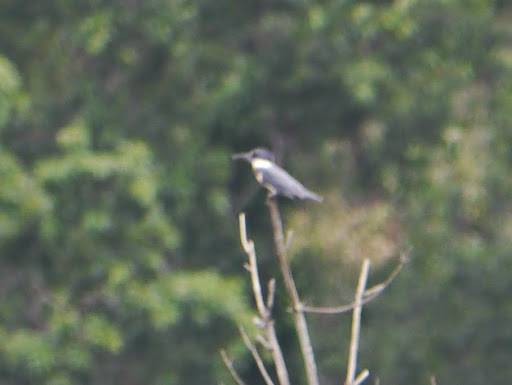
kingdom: Animalia
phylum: Chordata
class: Aves
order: Coraciiformes
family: Alcedinidae
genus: Megaceryle
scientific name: Megaceryle alcyon
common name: Belted kingfisher
